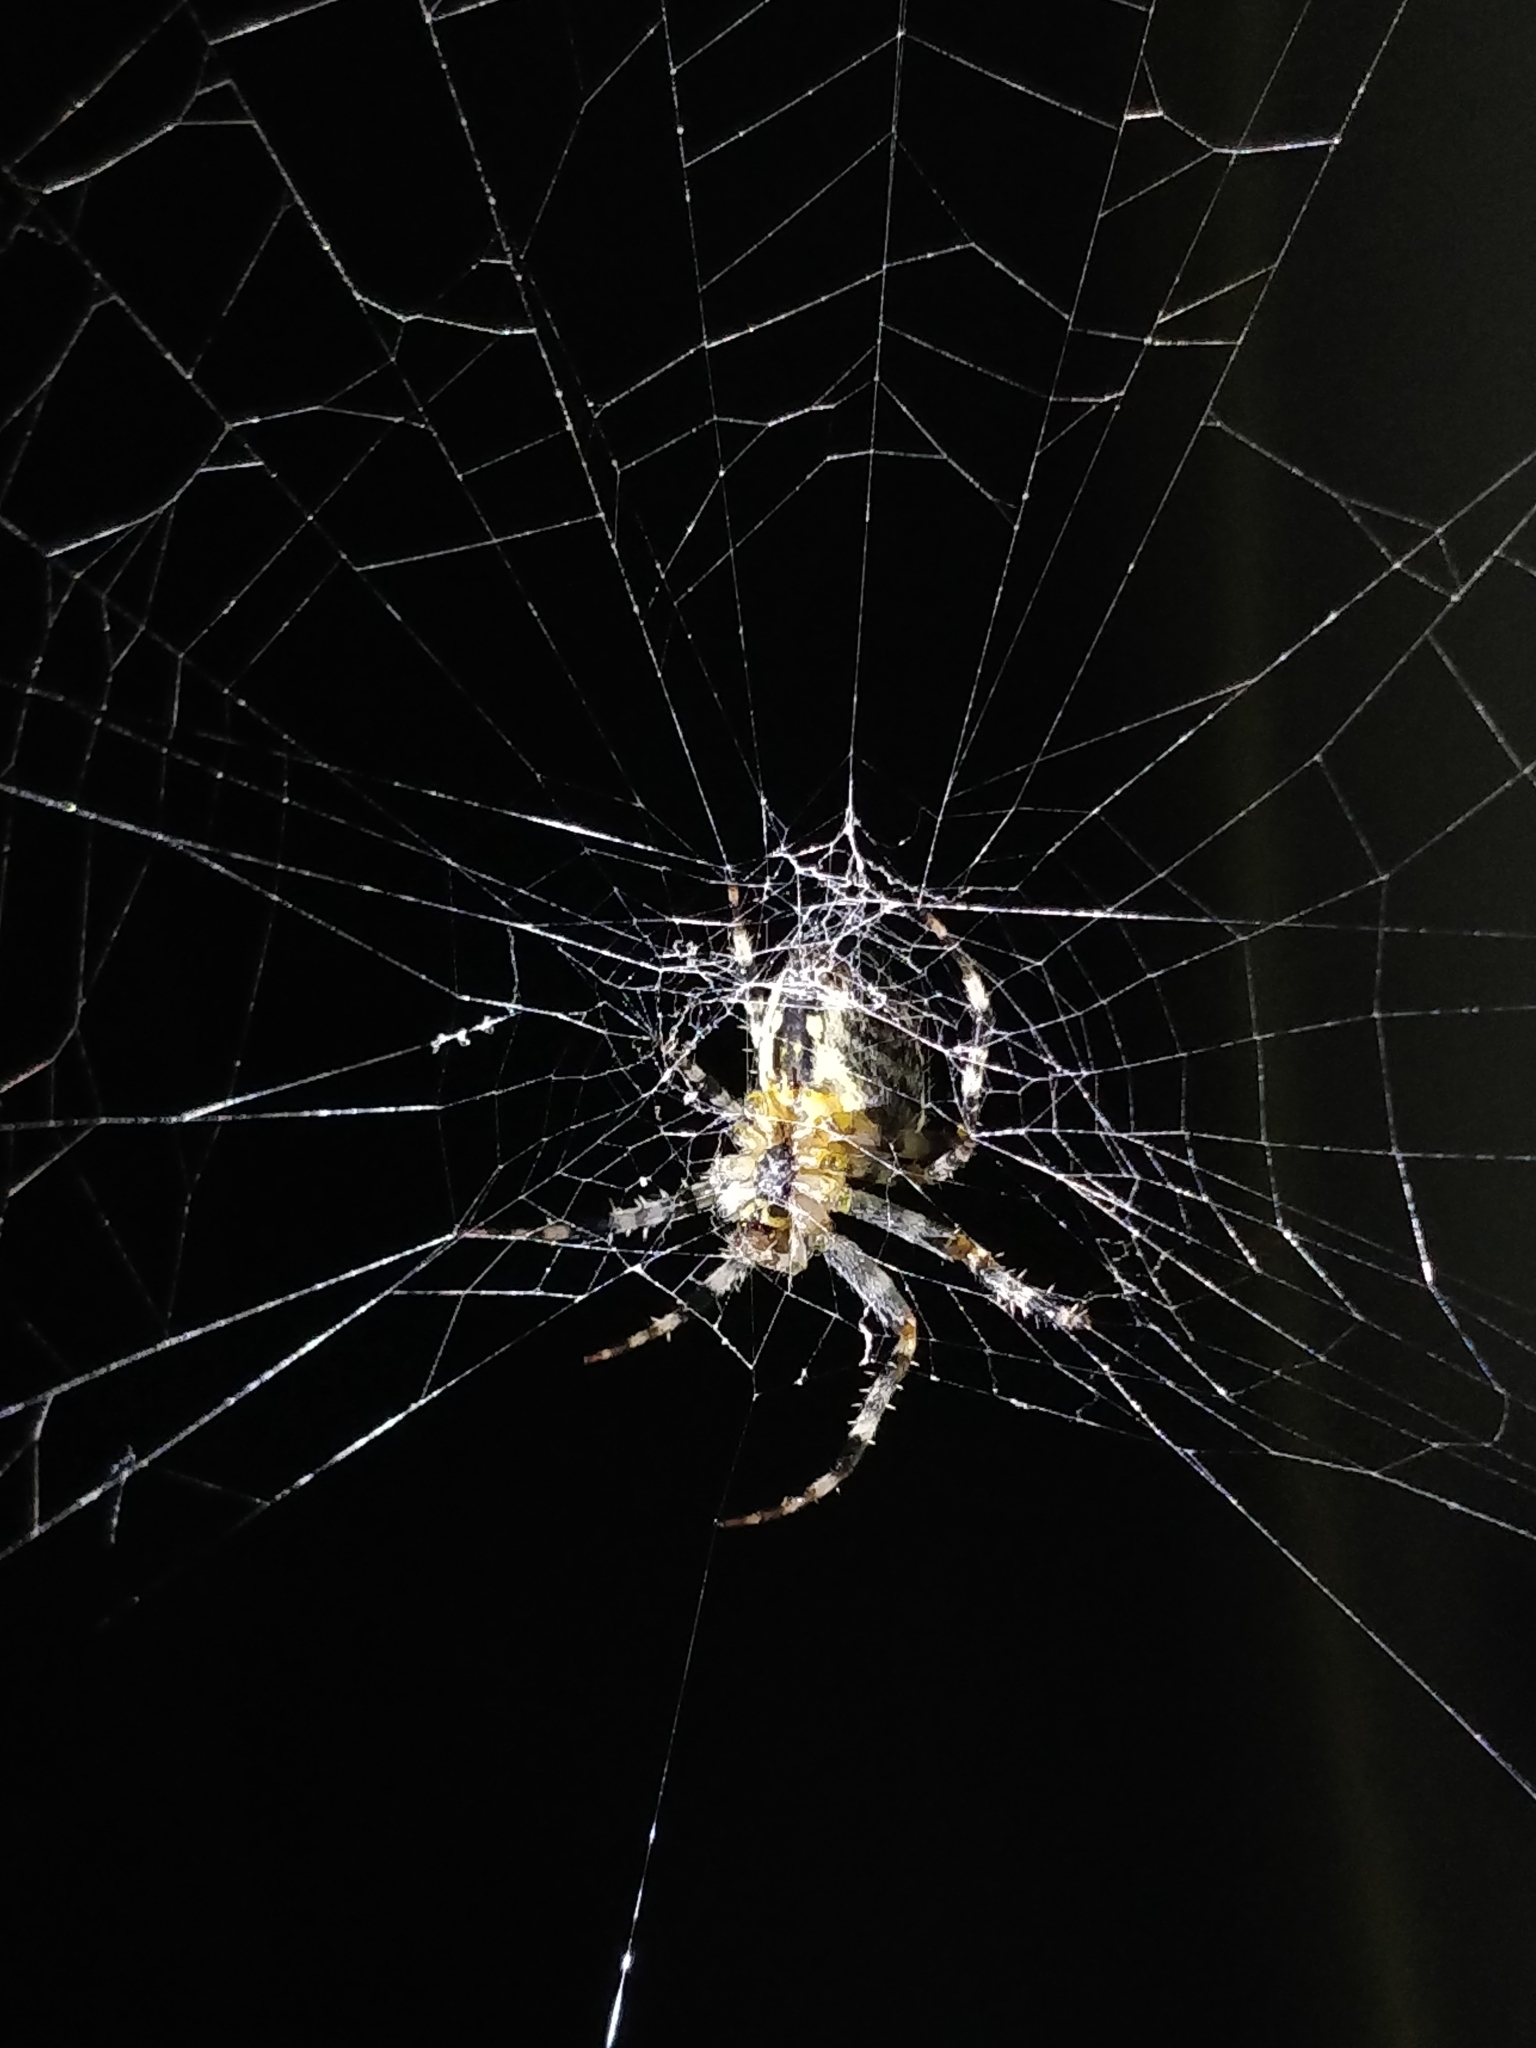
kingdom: Animalia
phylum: Arthropoda
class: Arachnida
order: Araneae
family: Araneidae
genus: Araneus
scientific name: Araneus diadematus
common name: Cross orbweaver
